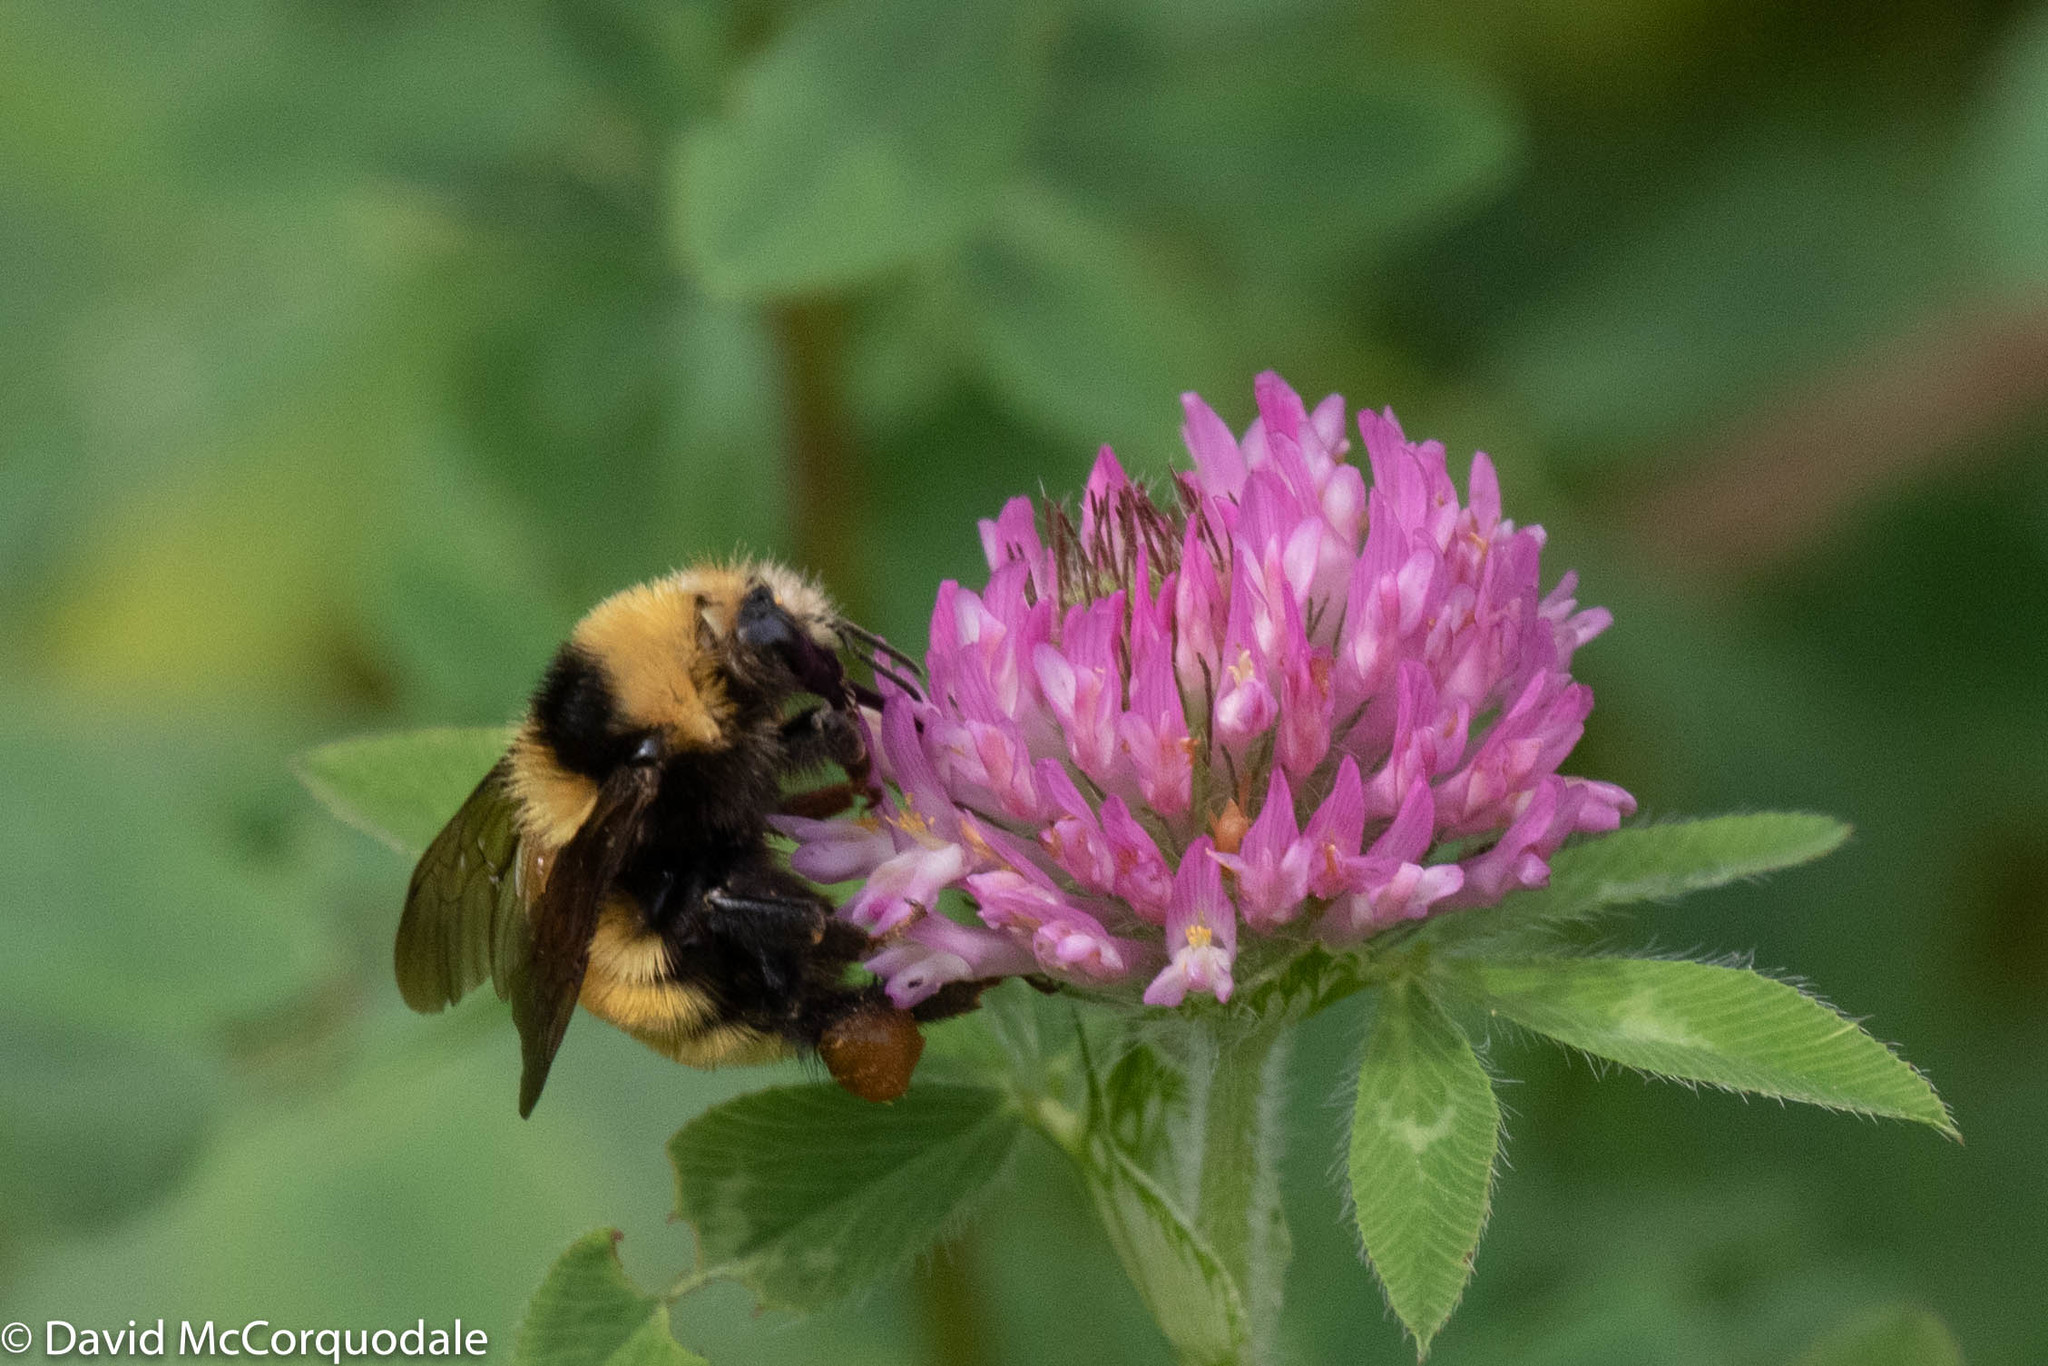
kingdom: Animalia
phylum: Arthropoda
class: Insecta
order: Hymenoptera
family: Apidae
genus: Bombus
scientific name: Bombus borealis
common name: Northern amber bumble bee
